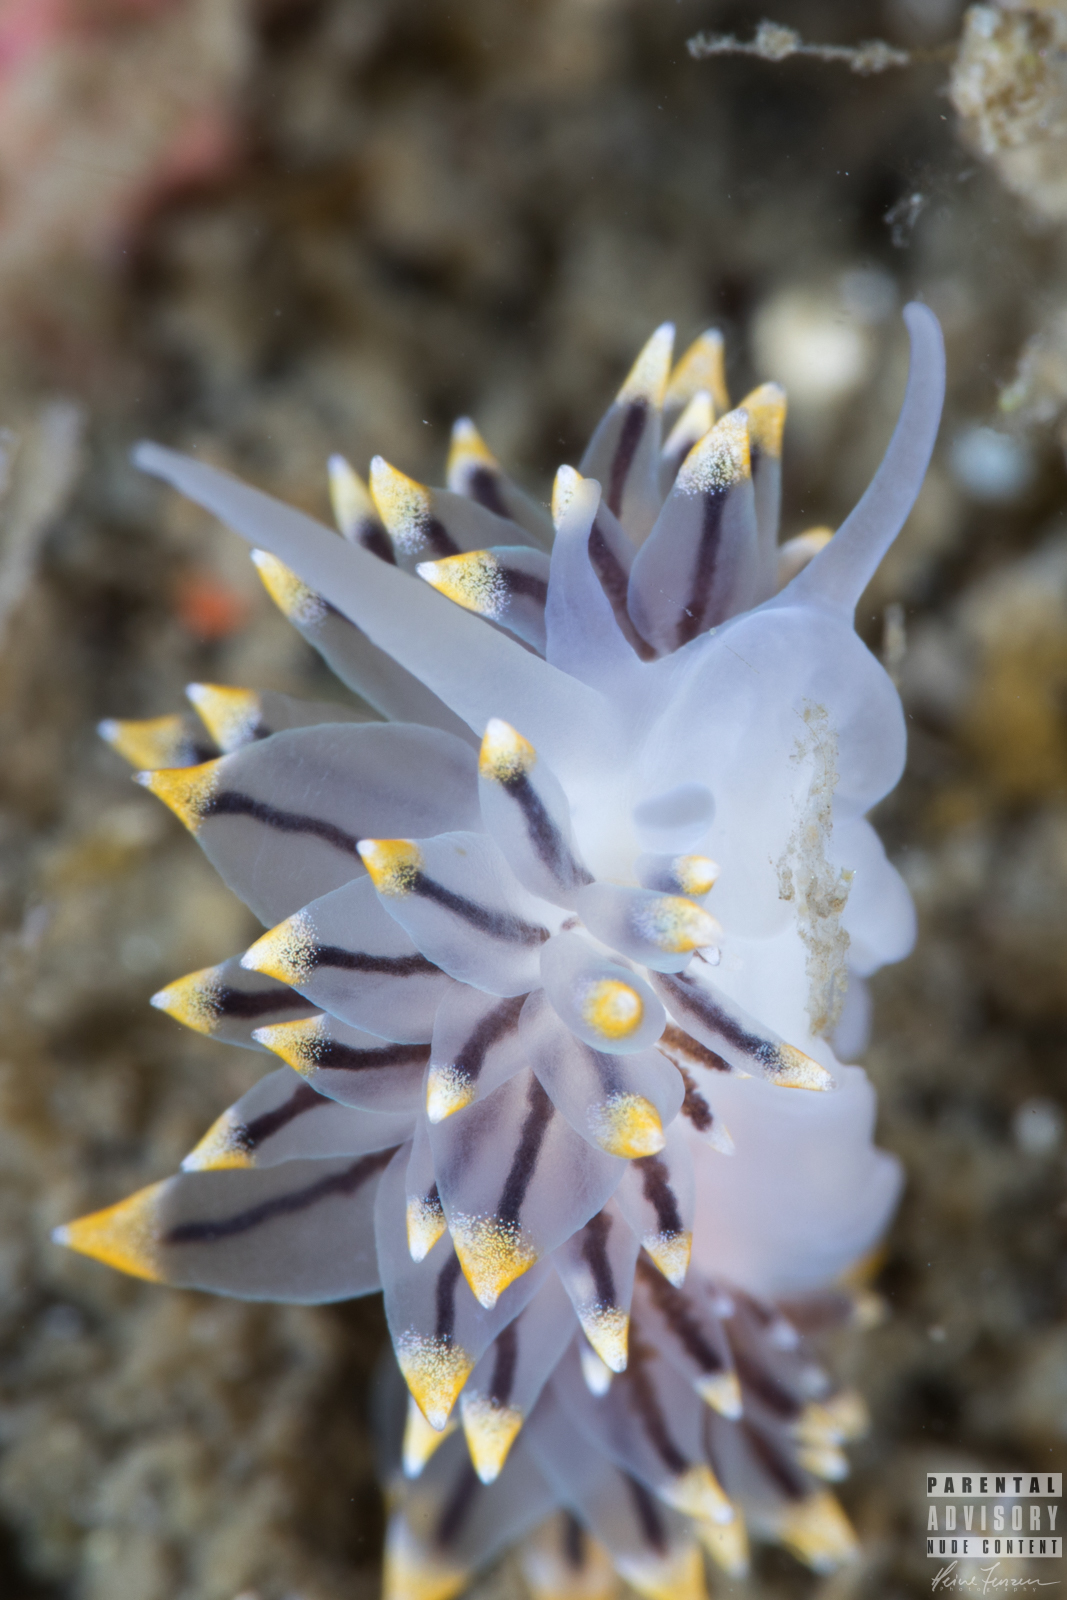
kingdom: Animalia
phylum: Mollusca
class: Gastropoda
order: Nudibranchia
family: Eubranchidae
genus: Eubranchus
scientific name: Eubranchus tricolor
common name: Painted balloon aeolis
